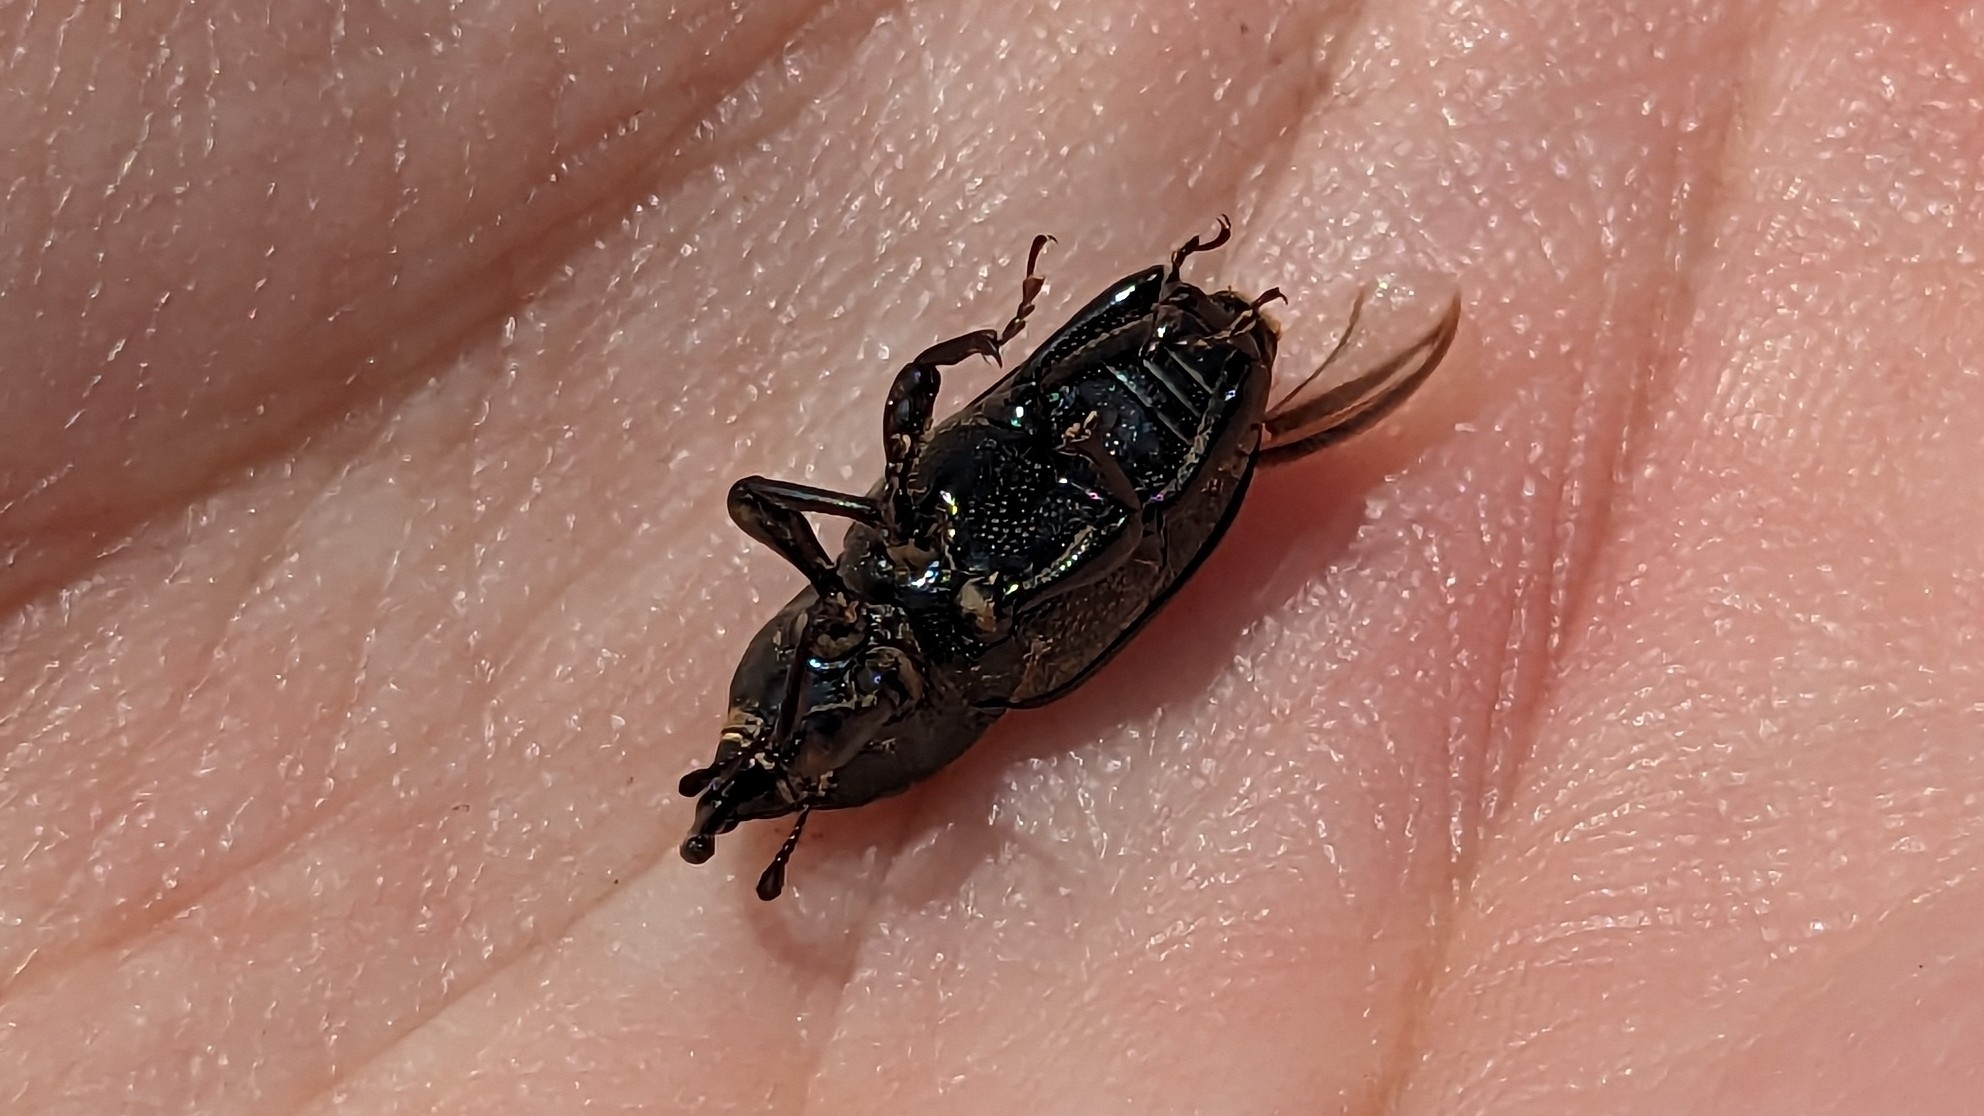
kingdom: Animalia
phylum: Arthropoda
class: Insecta
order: Coleoptera
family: Dryophthoridae
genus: Sphenophorus
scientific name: Sphenophorus australis
